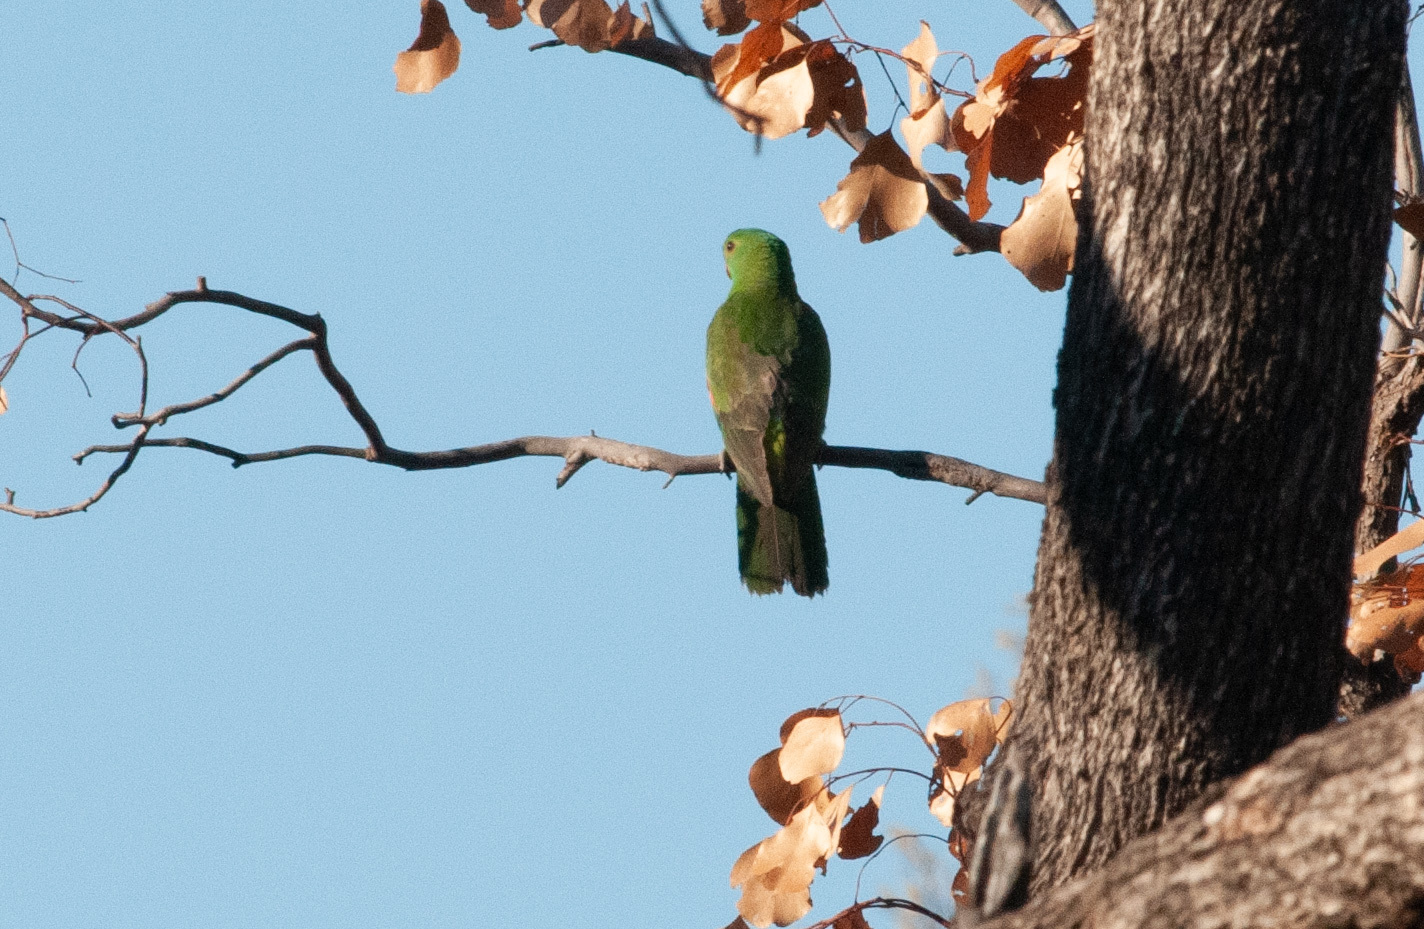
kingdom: Animalia
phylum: Chordata
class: Aves
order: Psittaciformes
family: Psittacidae
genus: Aprosmictus
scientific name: Aprosmictus erythropterus
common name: Red-winged parrot
